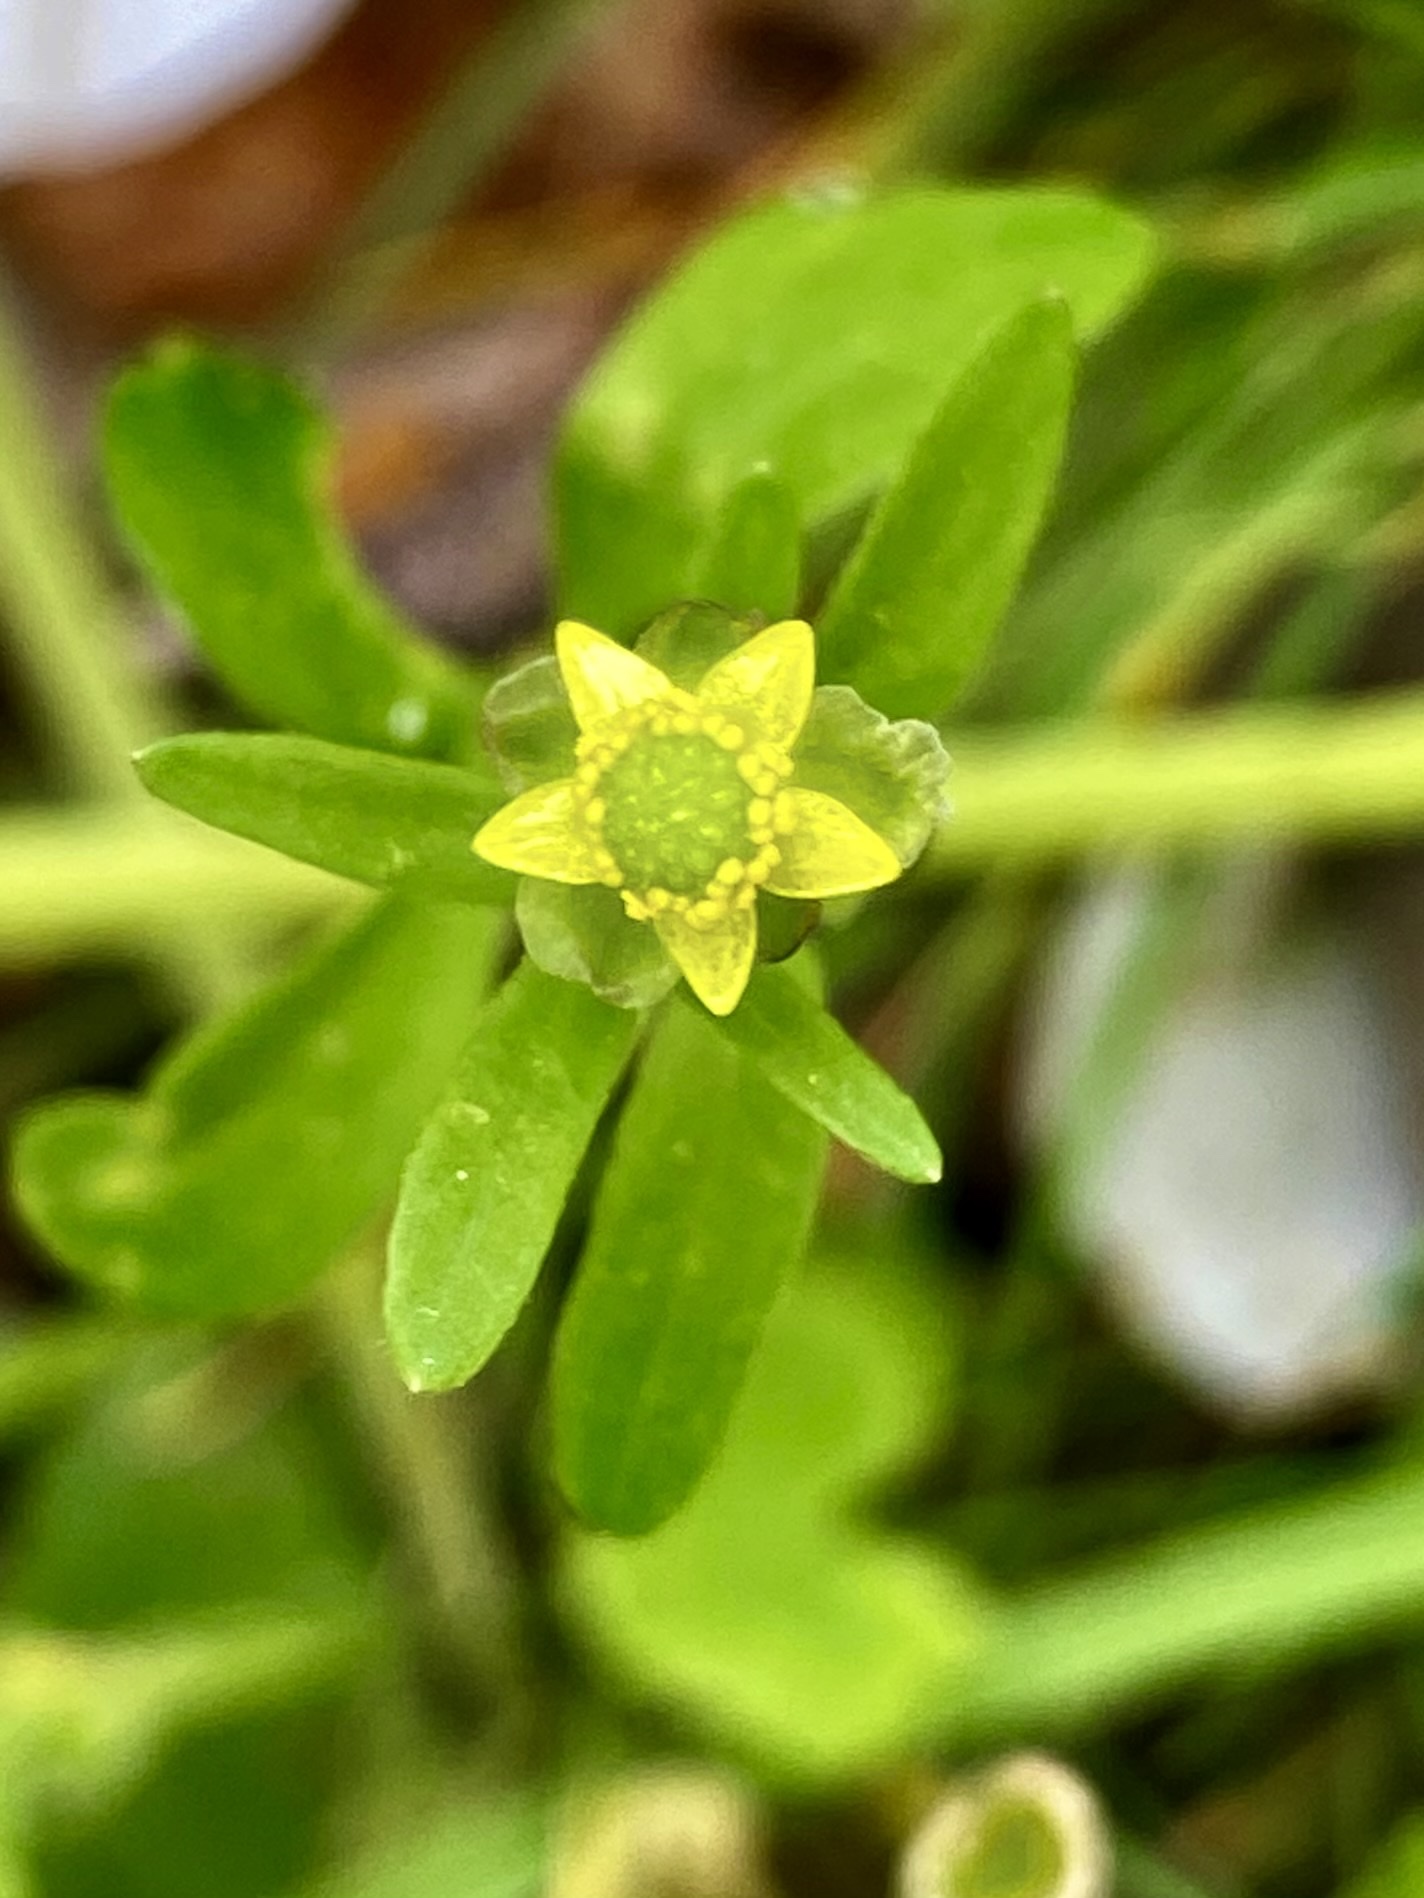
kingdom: Plantae
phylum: Tracheophyta
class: Magnoliopsida
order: Ranunculales
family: Ranunculaceae
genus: Ranunculus
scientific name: Ranunculus abortivus
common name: Early wood buttercup
